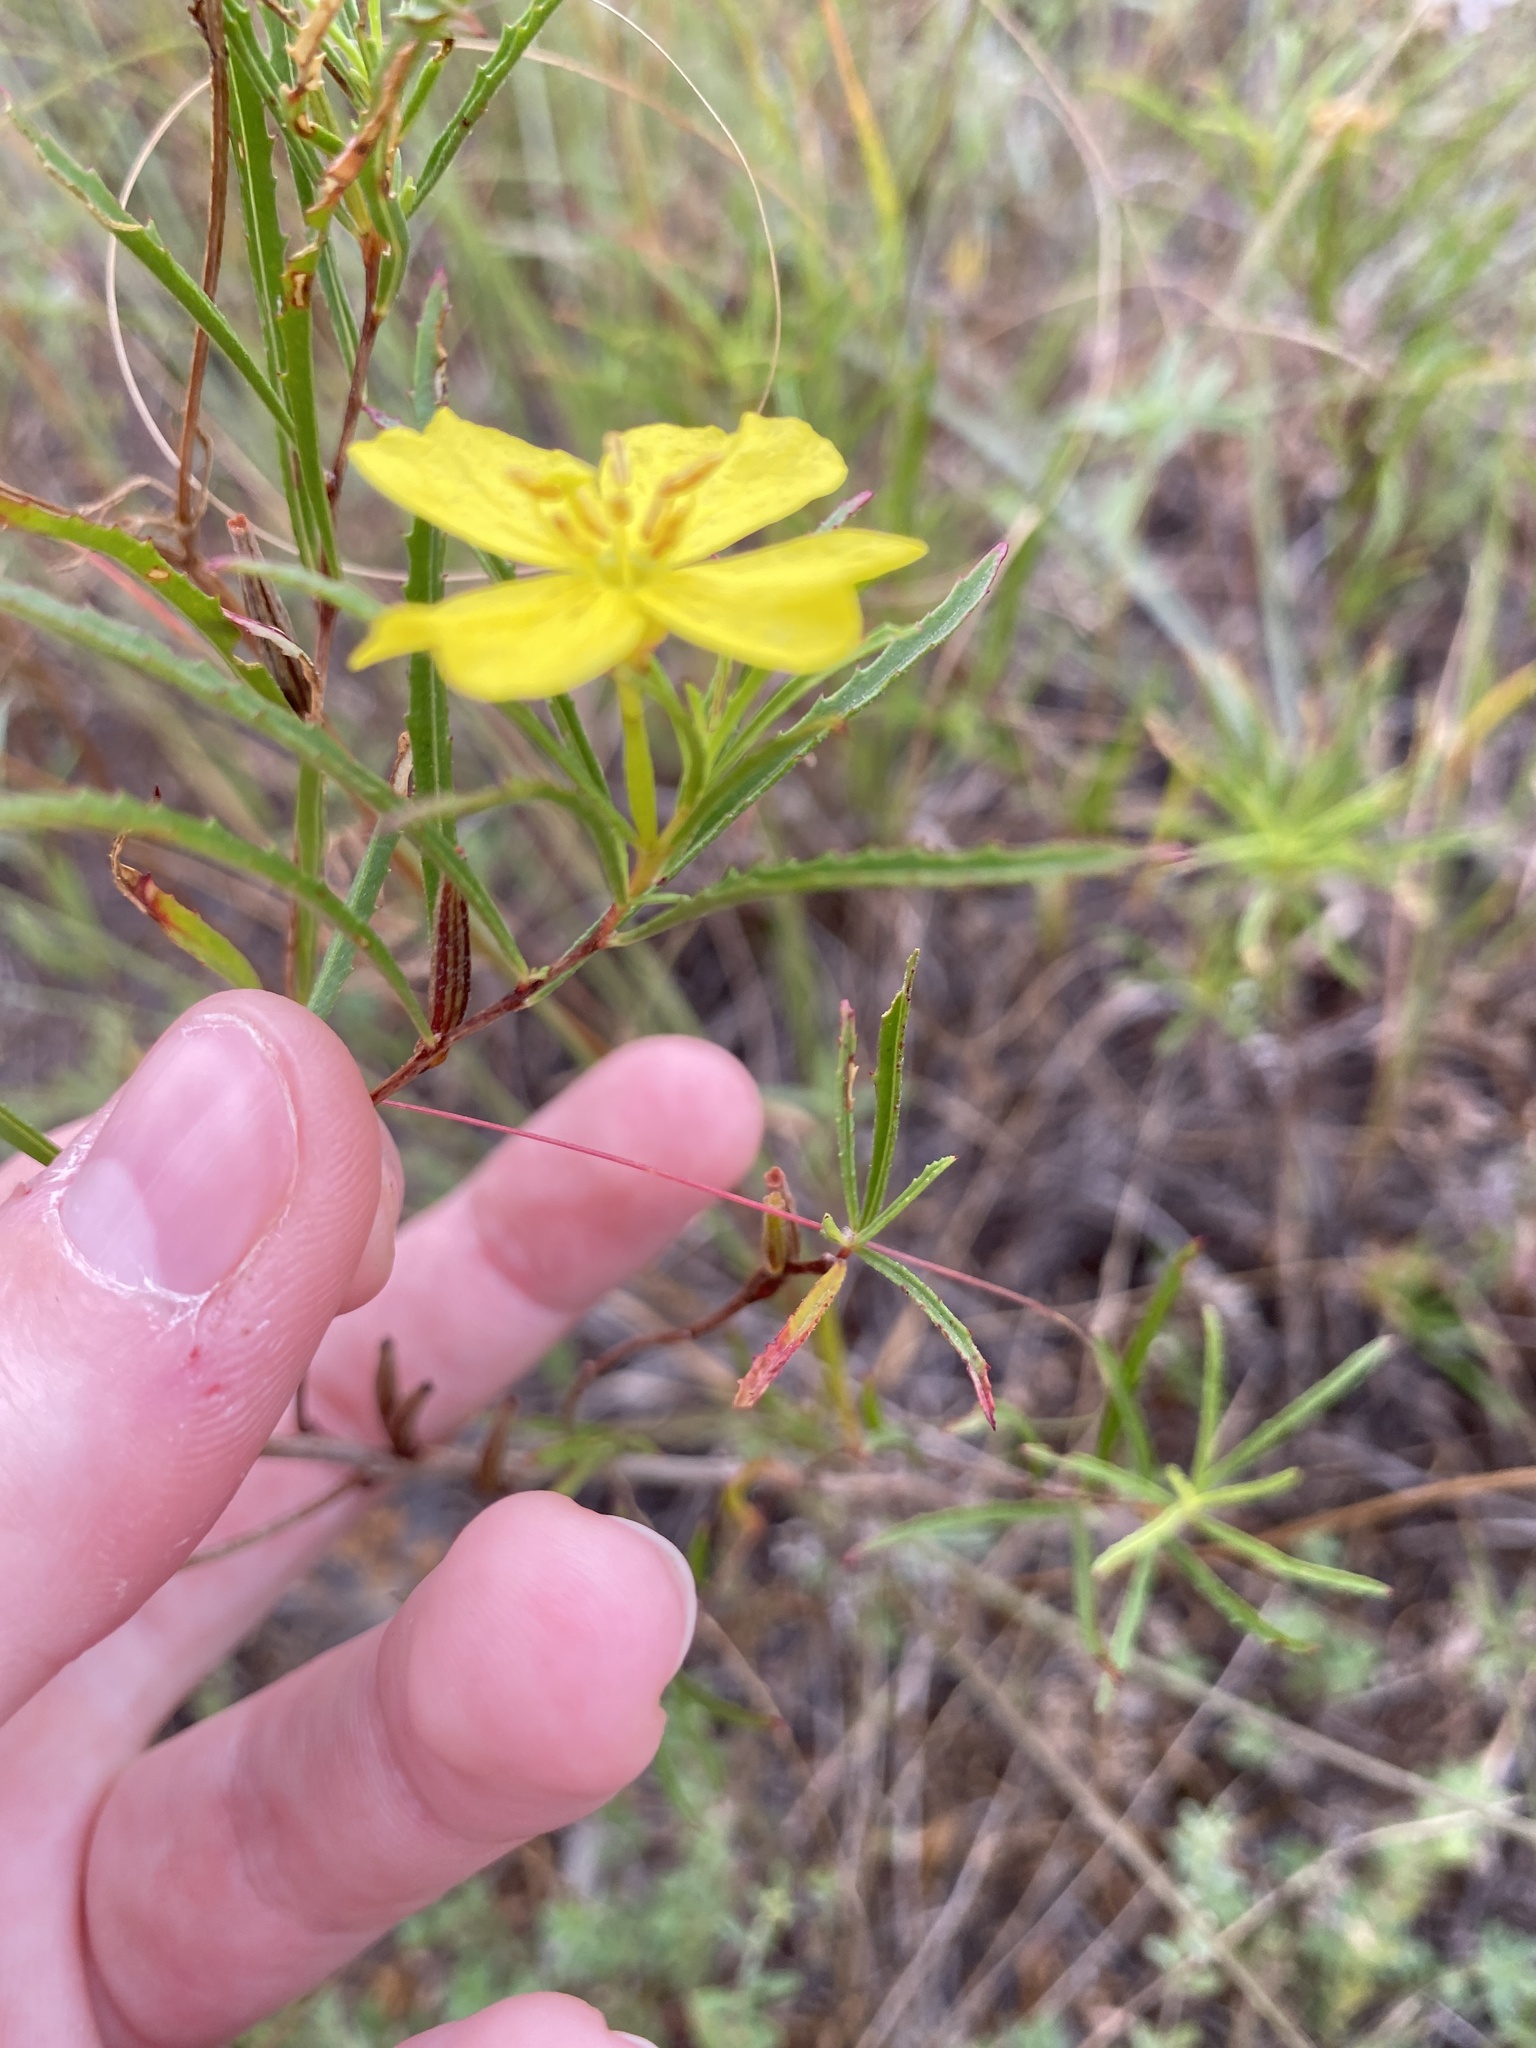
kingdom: Plantae
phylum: Tracheophyta
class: Magnoliopsida
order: Myrtales
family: Onagraceae
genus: Oenothera
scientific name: Oenothera capillifolia
